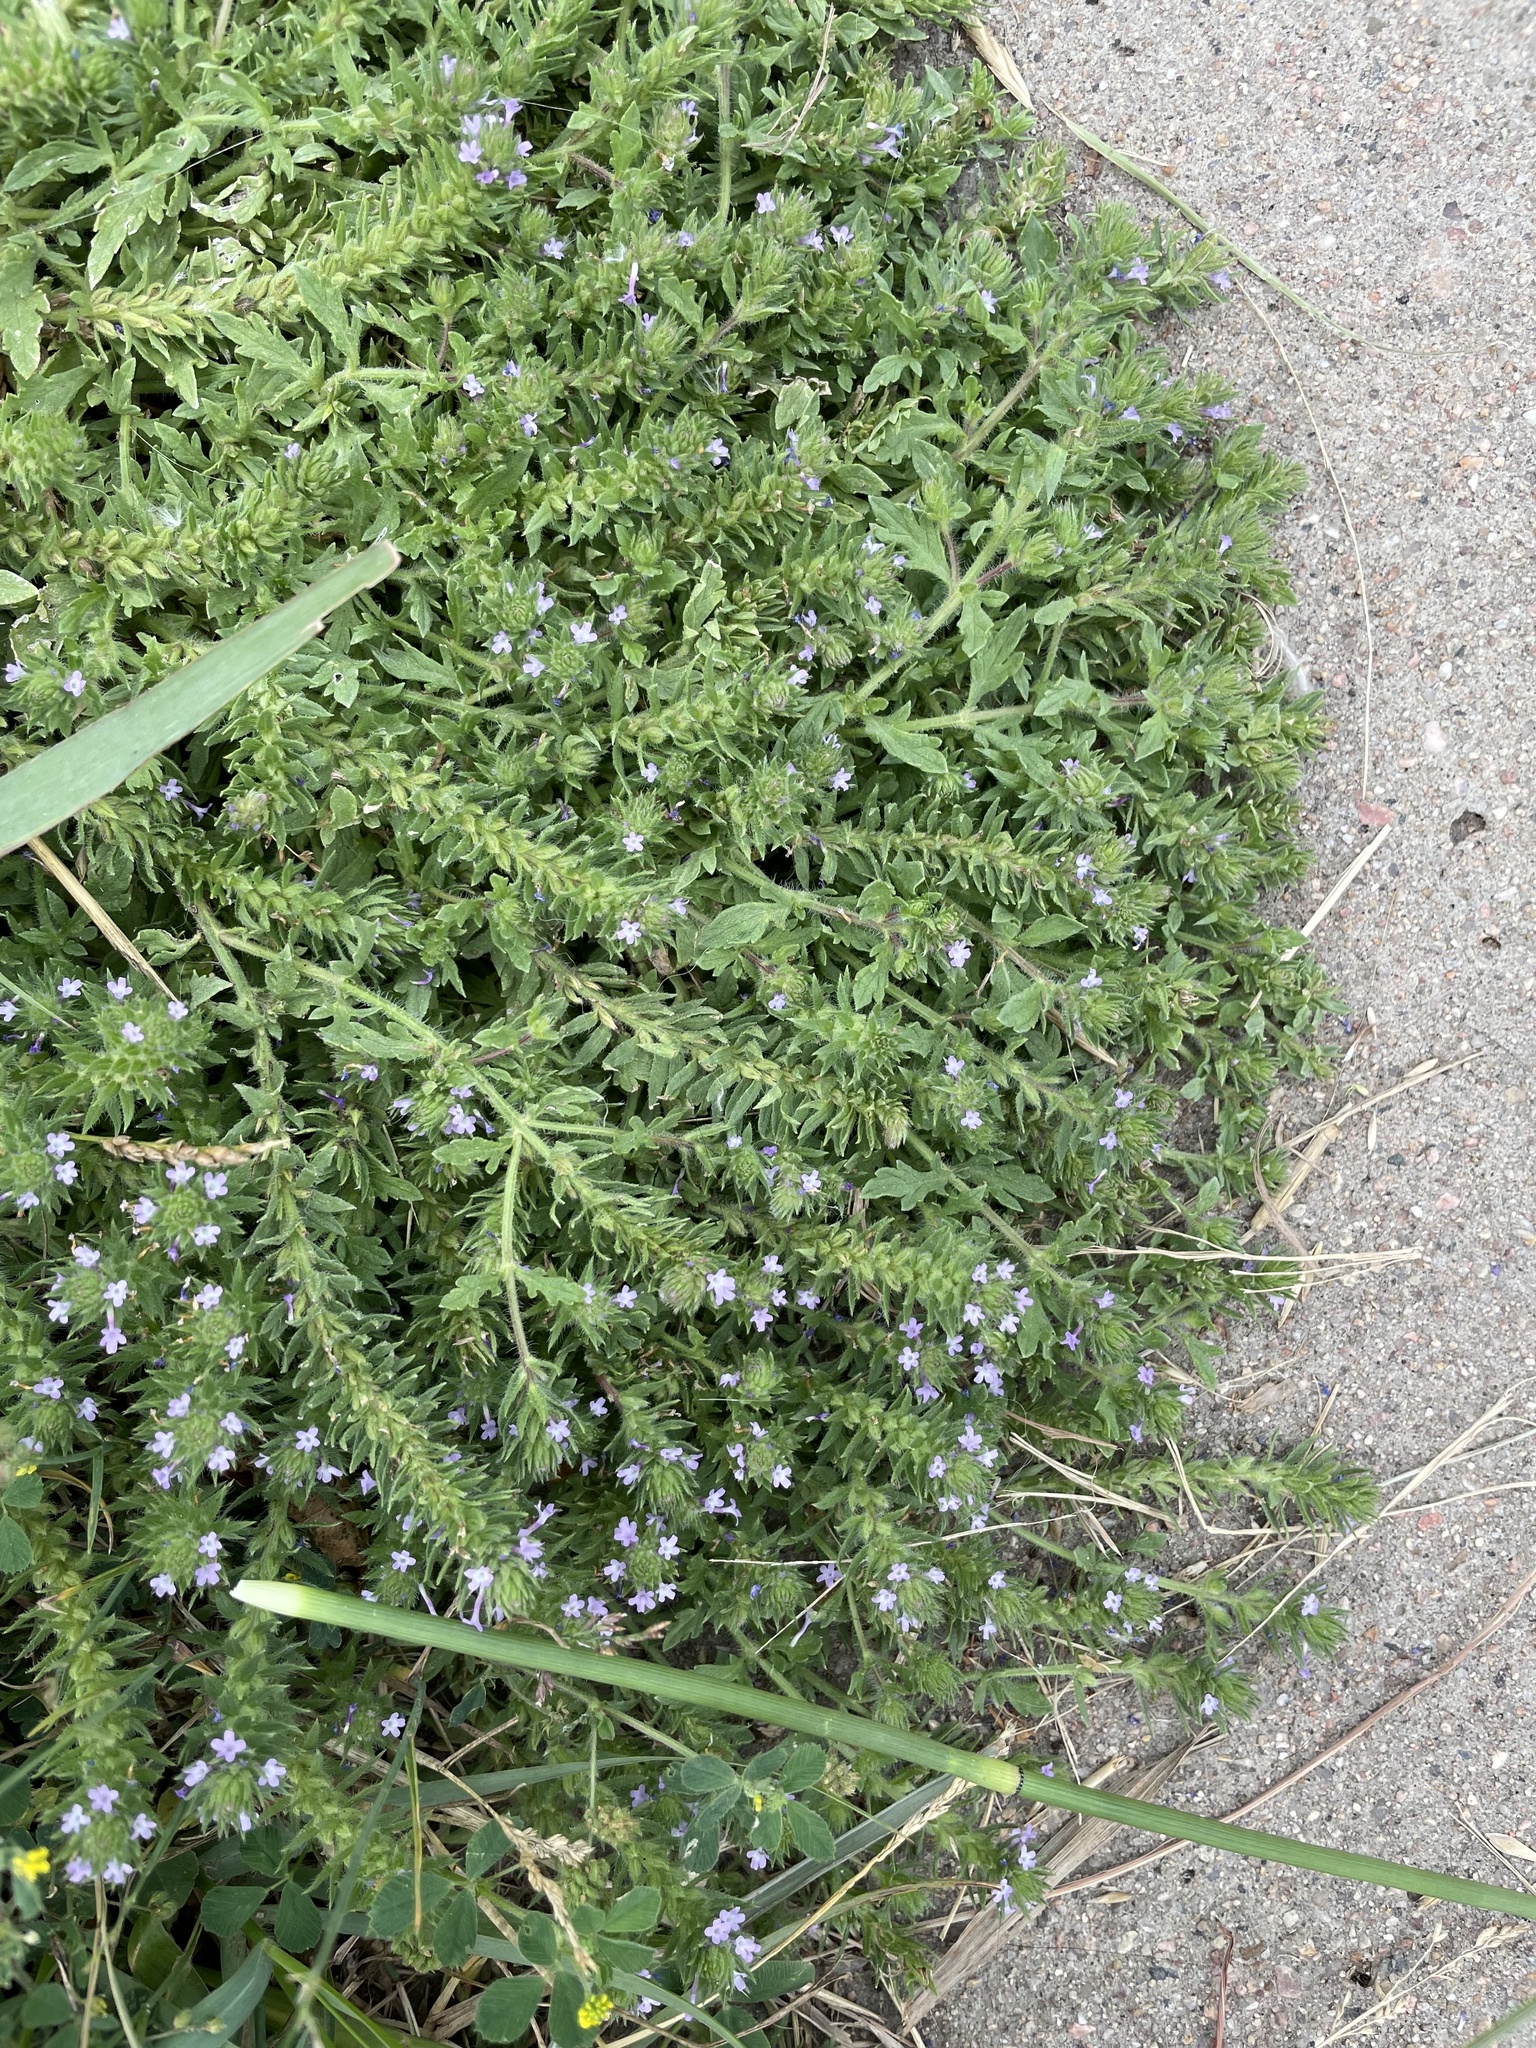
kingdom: Plantae
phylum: Tracheophyta
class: Magnoliopsida
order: Lamiales
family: Verbenaceae
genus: Verbena
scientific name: Verbena bracteata
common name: Bracted vervain
